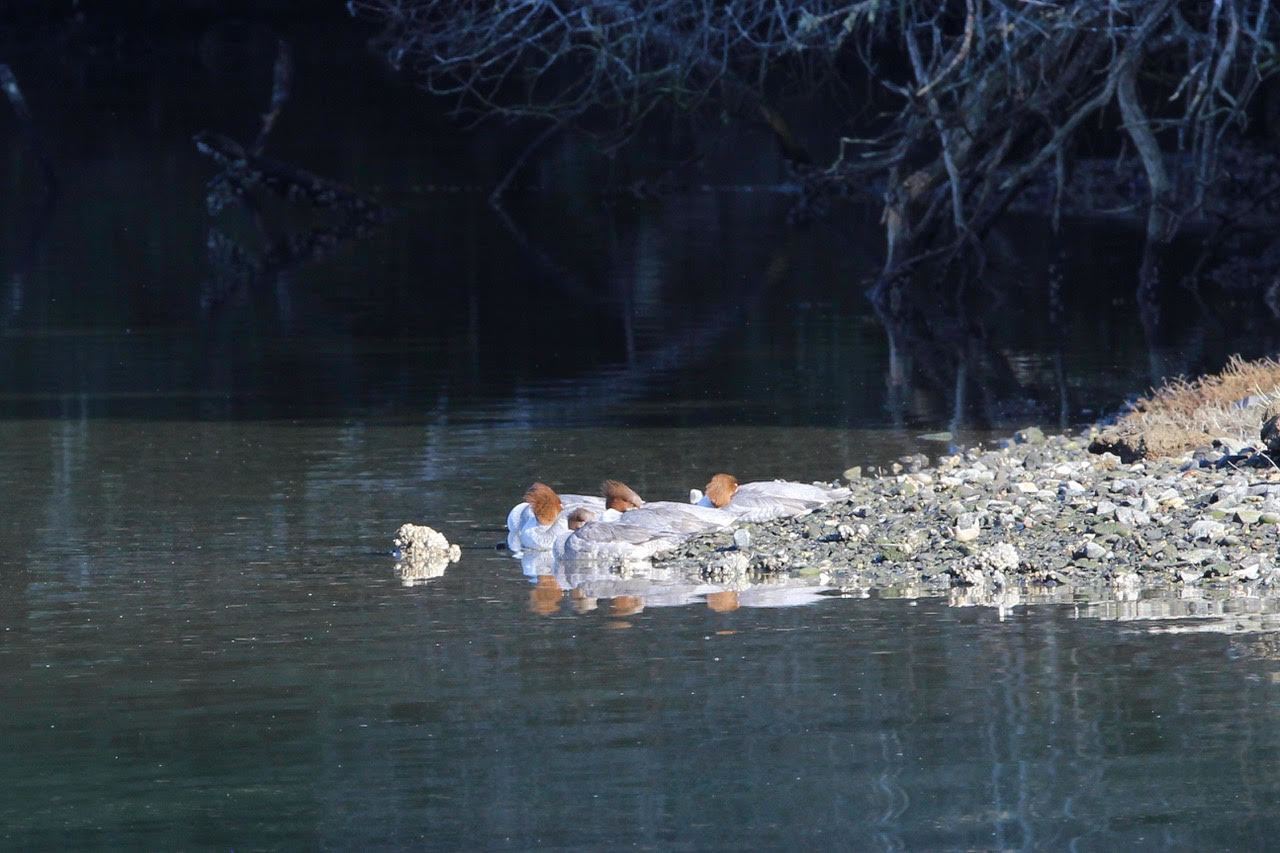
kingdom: Animalia
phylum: Chordata
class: Aves
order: Anseriformes
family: Anatidae
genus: Mergus
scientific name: Mergus merganser
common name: Common merganser
